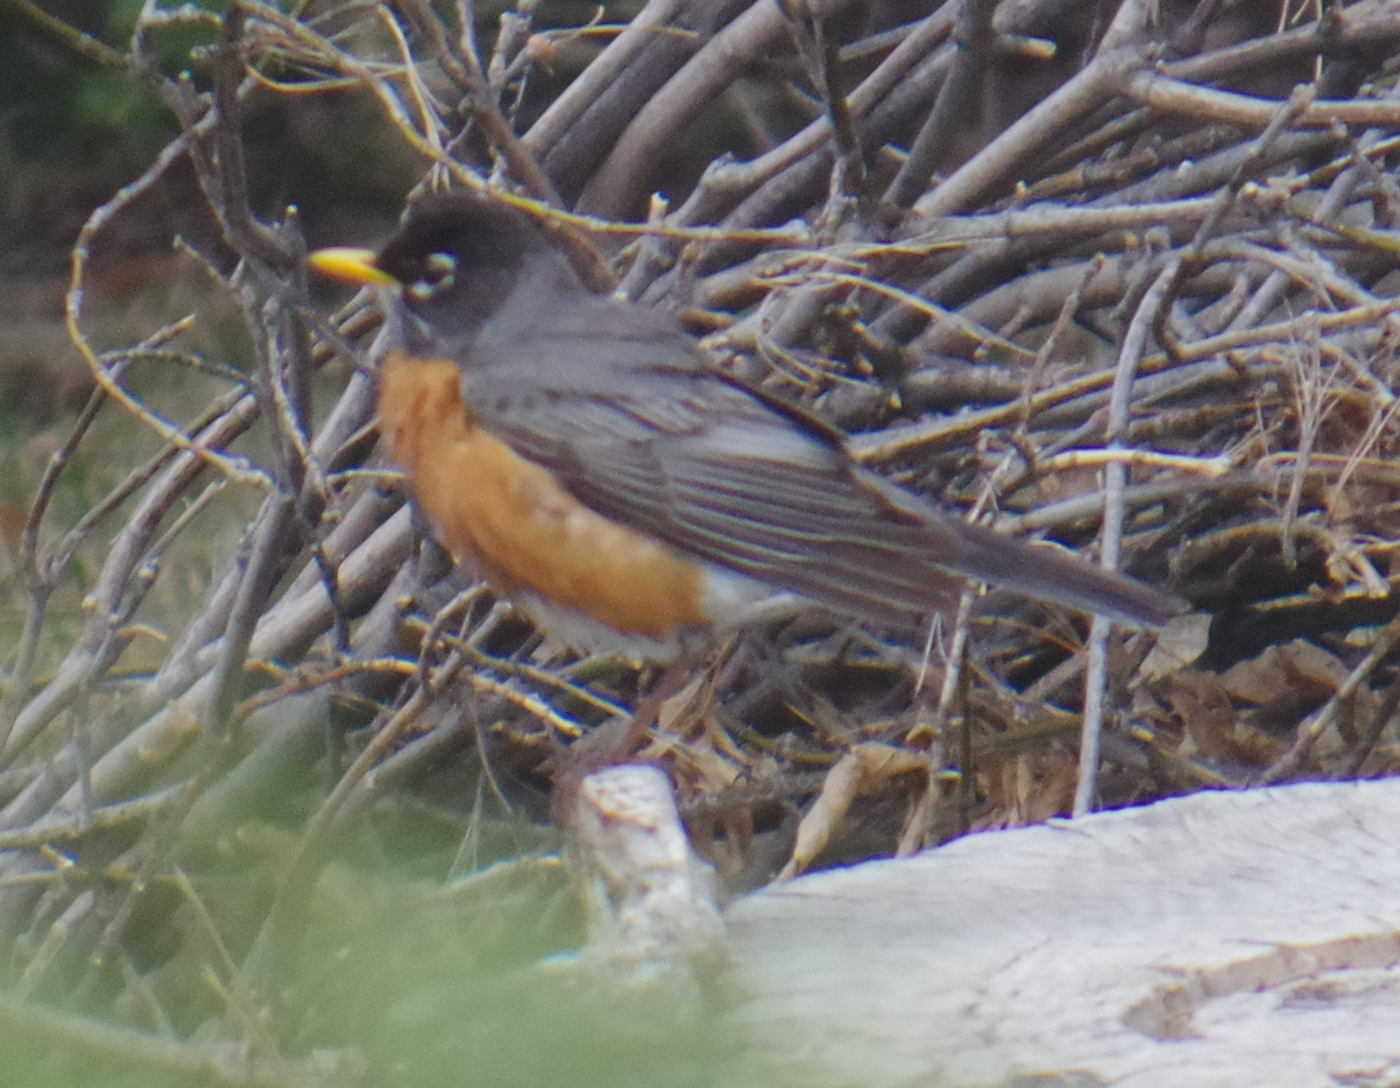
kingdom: Animalia
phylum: Chordata
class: Aves
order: Passeriformes
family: Turdidae
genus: Turdus
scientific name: Turdus migratorius
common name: American robin
